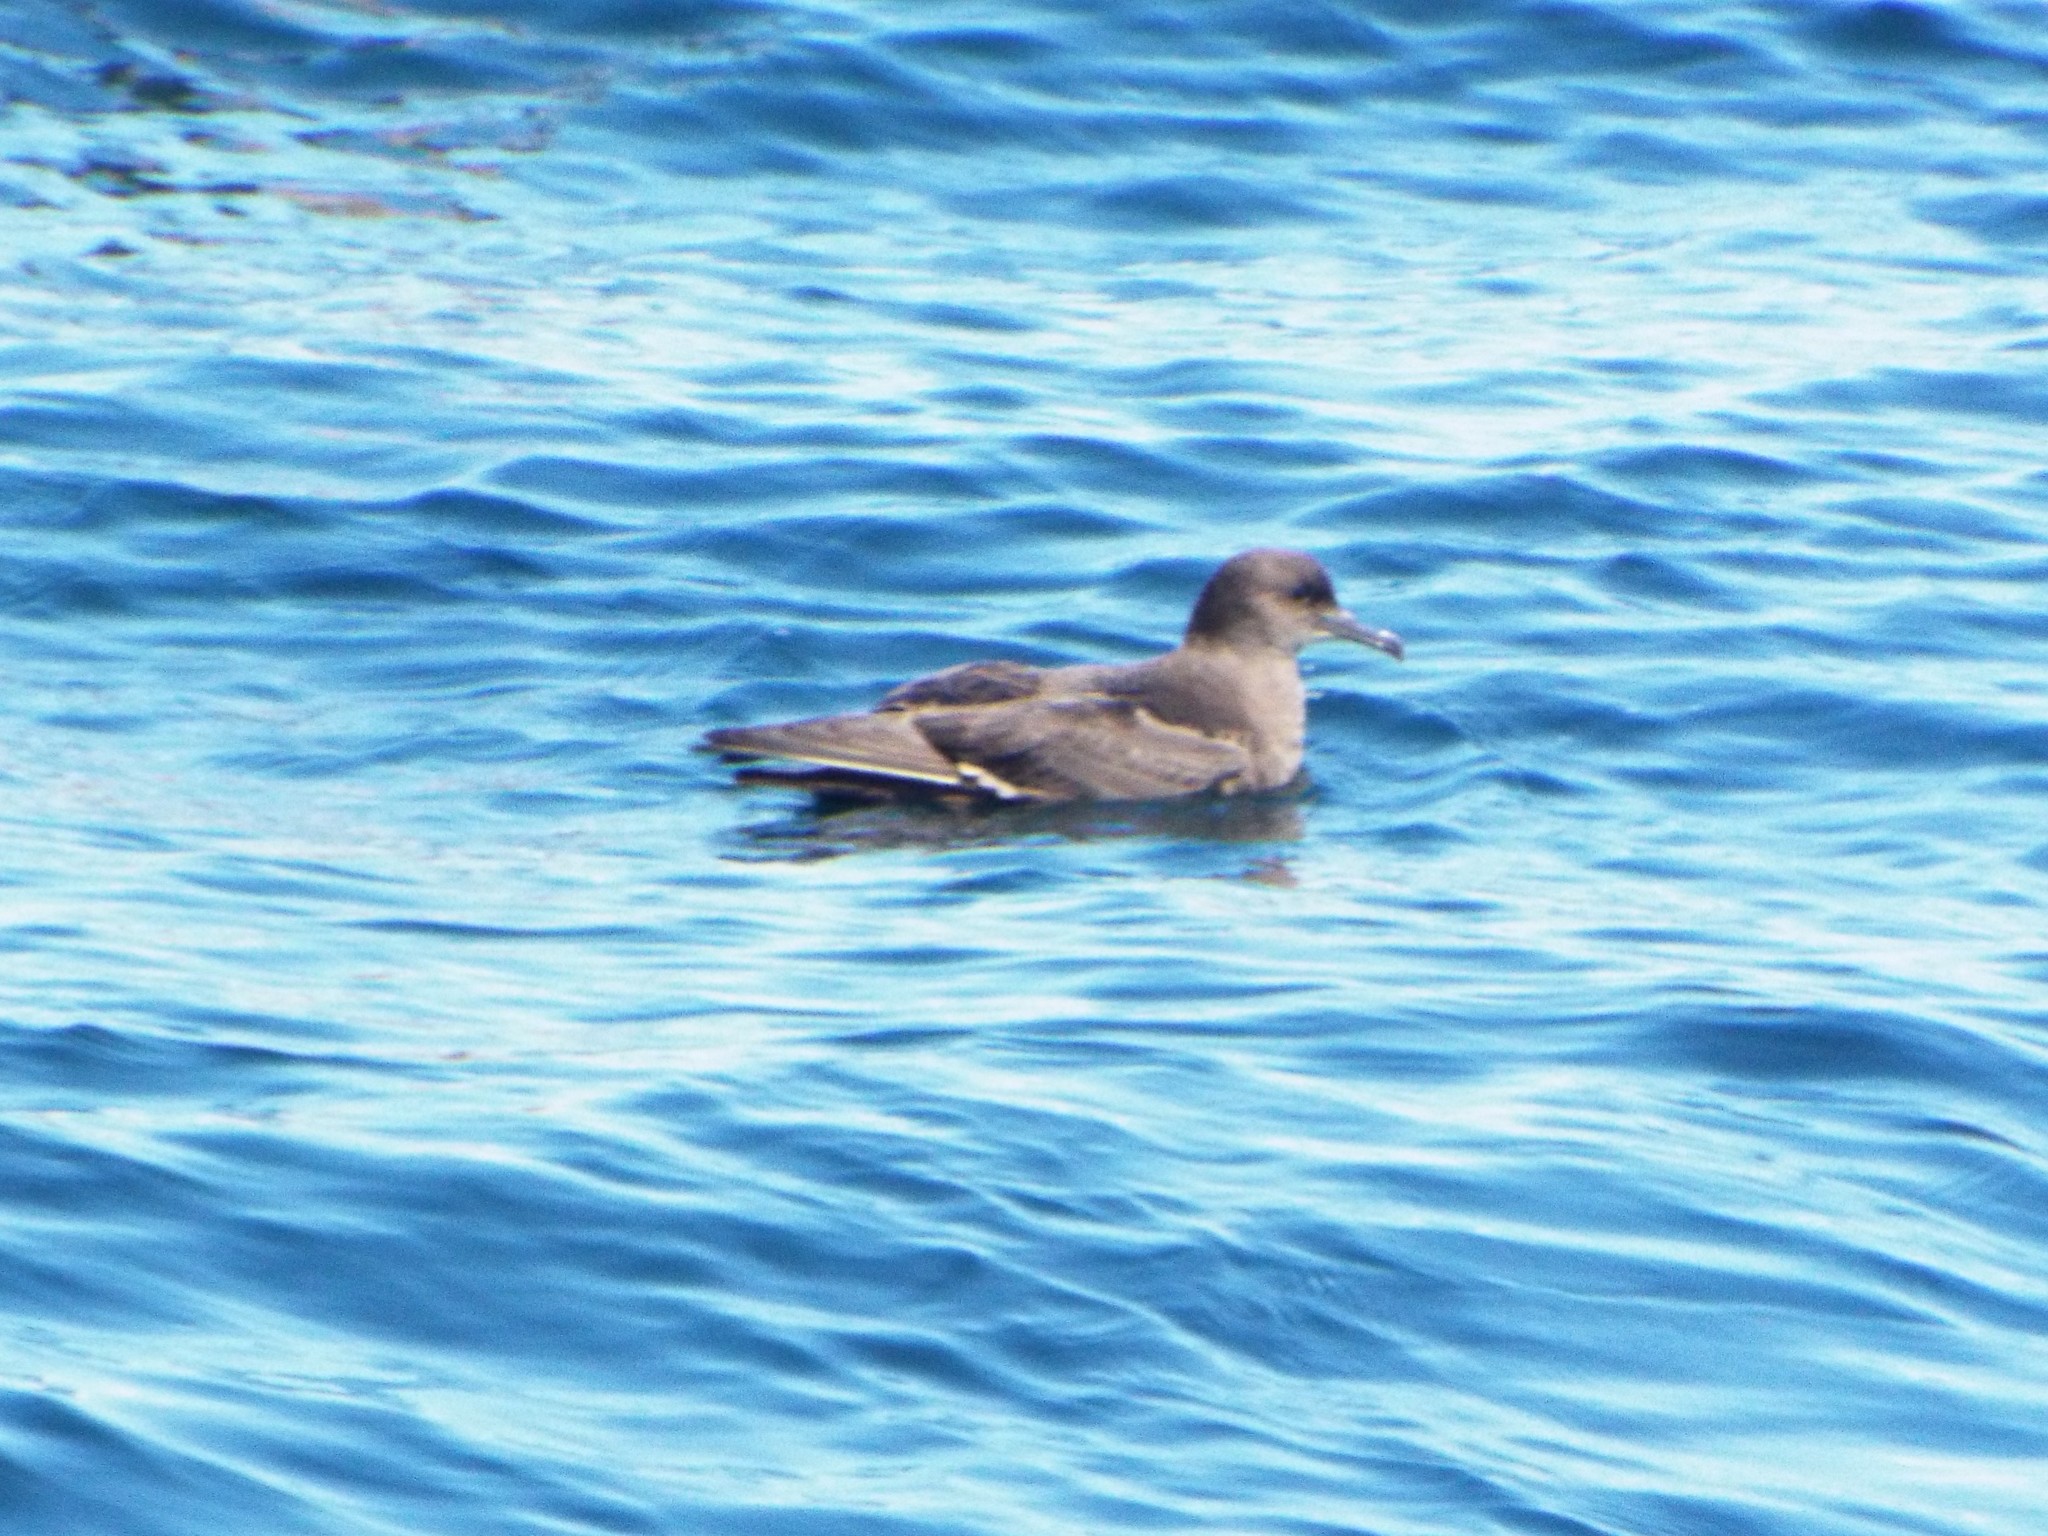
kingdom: Animalia
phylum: Chordata
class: Aves
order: Procellariiformes
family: Procellariidae
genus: Puffinus
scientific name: Puffinus griseus
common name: Sooty shearwater
